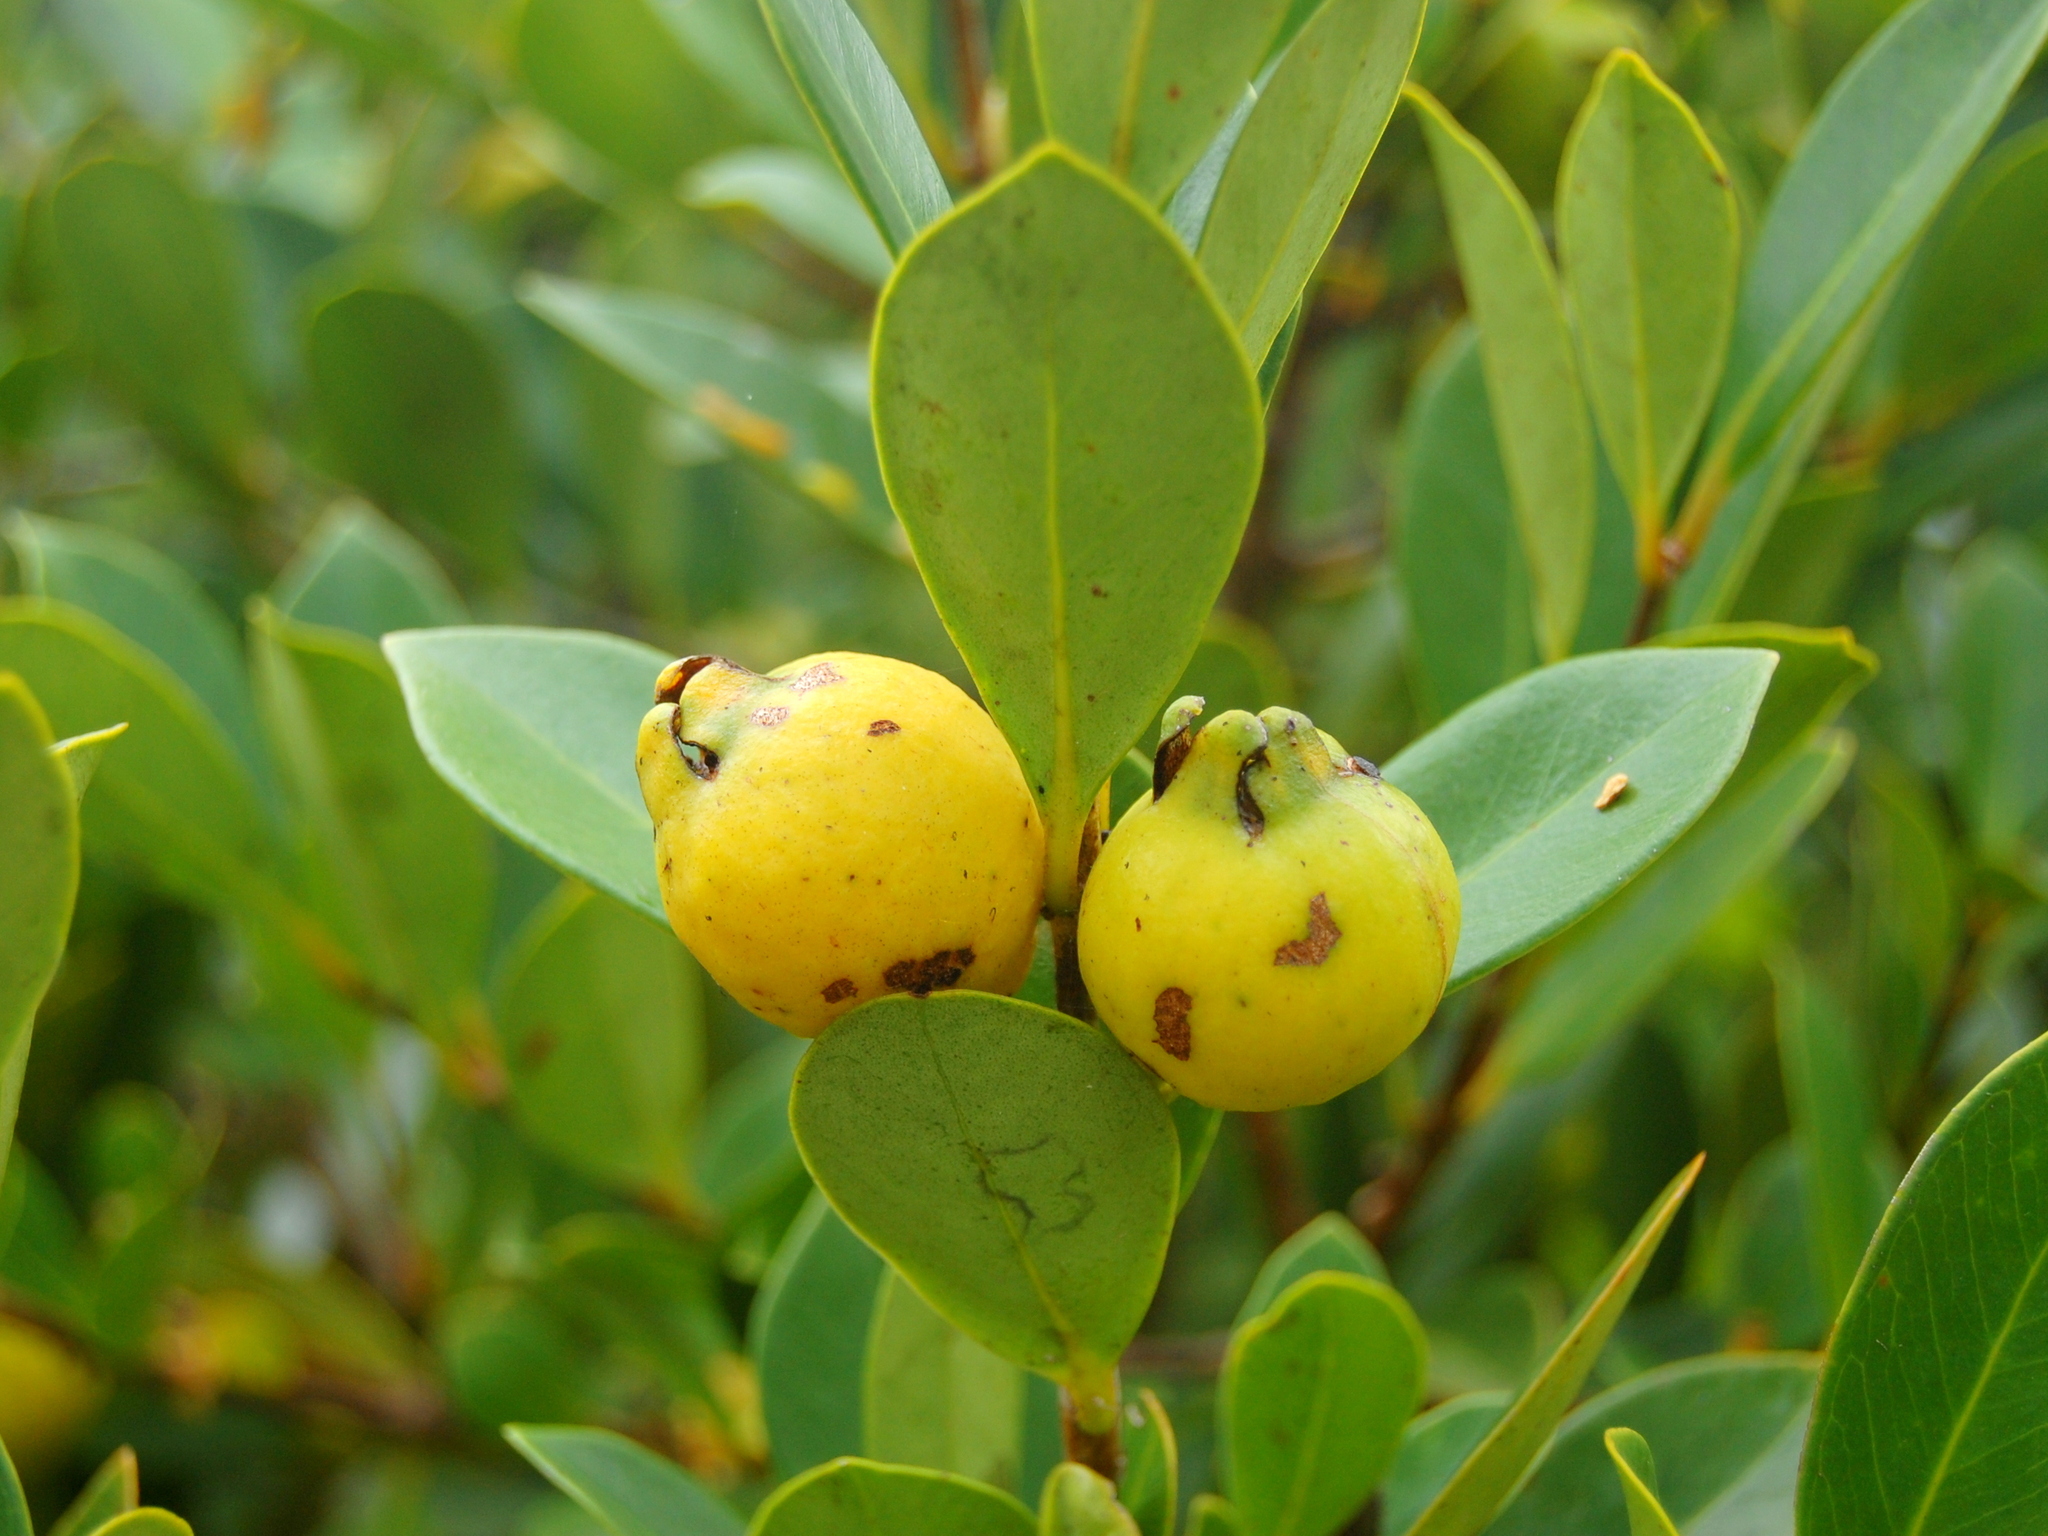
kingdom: Plantae
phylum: Tracheophyta
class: Magnoliopsida
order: Myrtales
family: Myrtaceae
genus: Psidium
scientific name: Psidium cattleianum
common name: Strawberry guava
